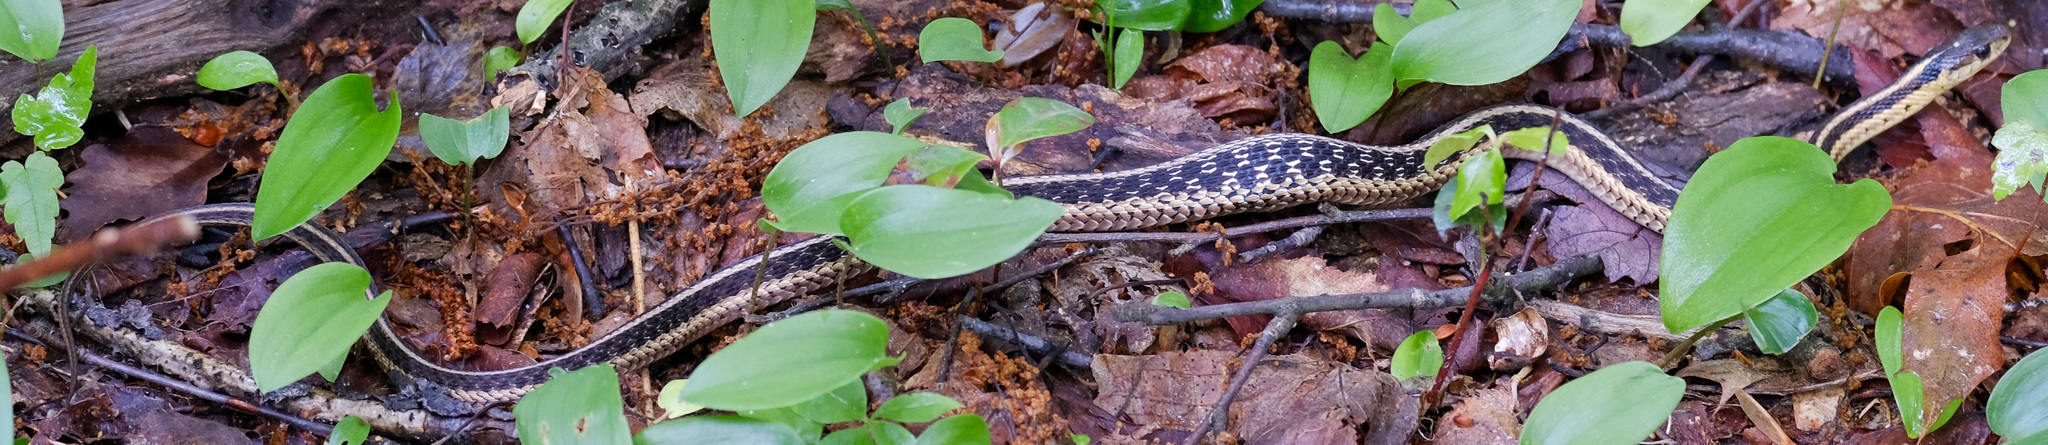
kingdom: Animalia
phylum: Chordata
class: Squamata
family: Colubridae
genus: Thamnophis
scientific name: Thamnophis sirtalis
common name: Common garter snake
